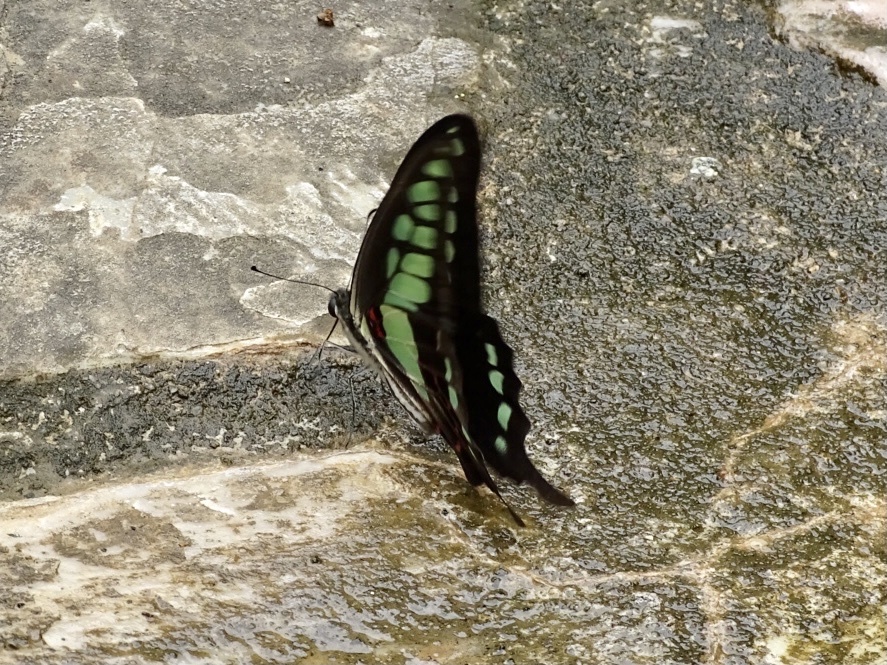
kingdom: Animalia
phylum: Arthropoda
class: Insecta
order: Lepidoptera
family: Papilionidae
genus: Graphium
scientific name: Graphium cloanthus
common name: Glassy bluebottle
